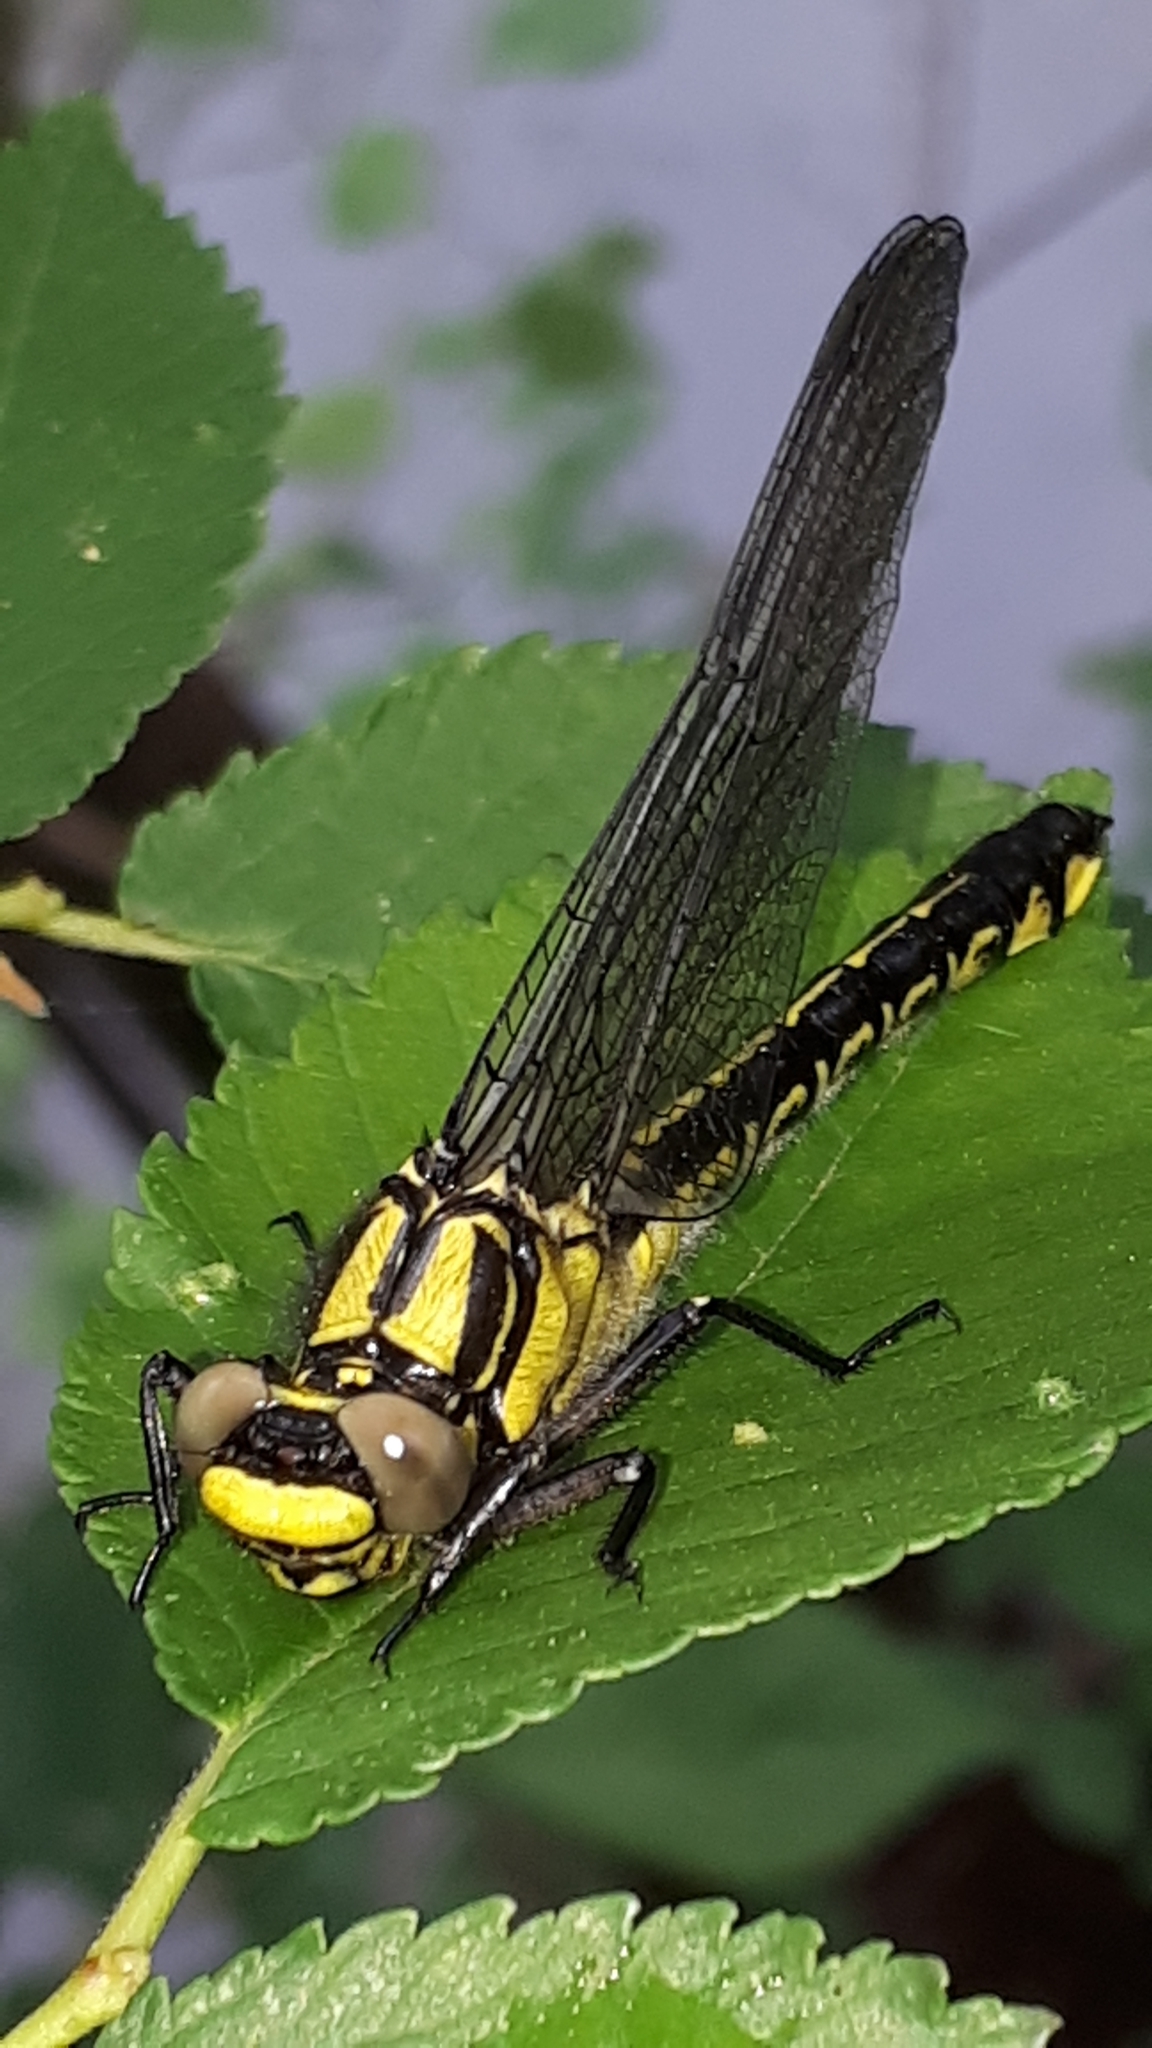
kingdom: Animalia
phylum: Arthropoda
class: Insecta
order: Odonata
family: Gomphidae
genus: Gomphus
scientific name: Gomphus vulgatissimus
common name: Club-tailed dragonfly
